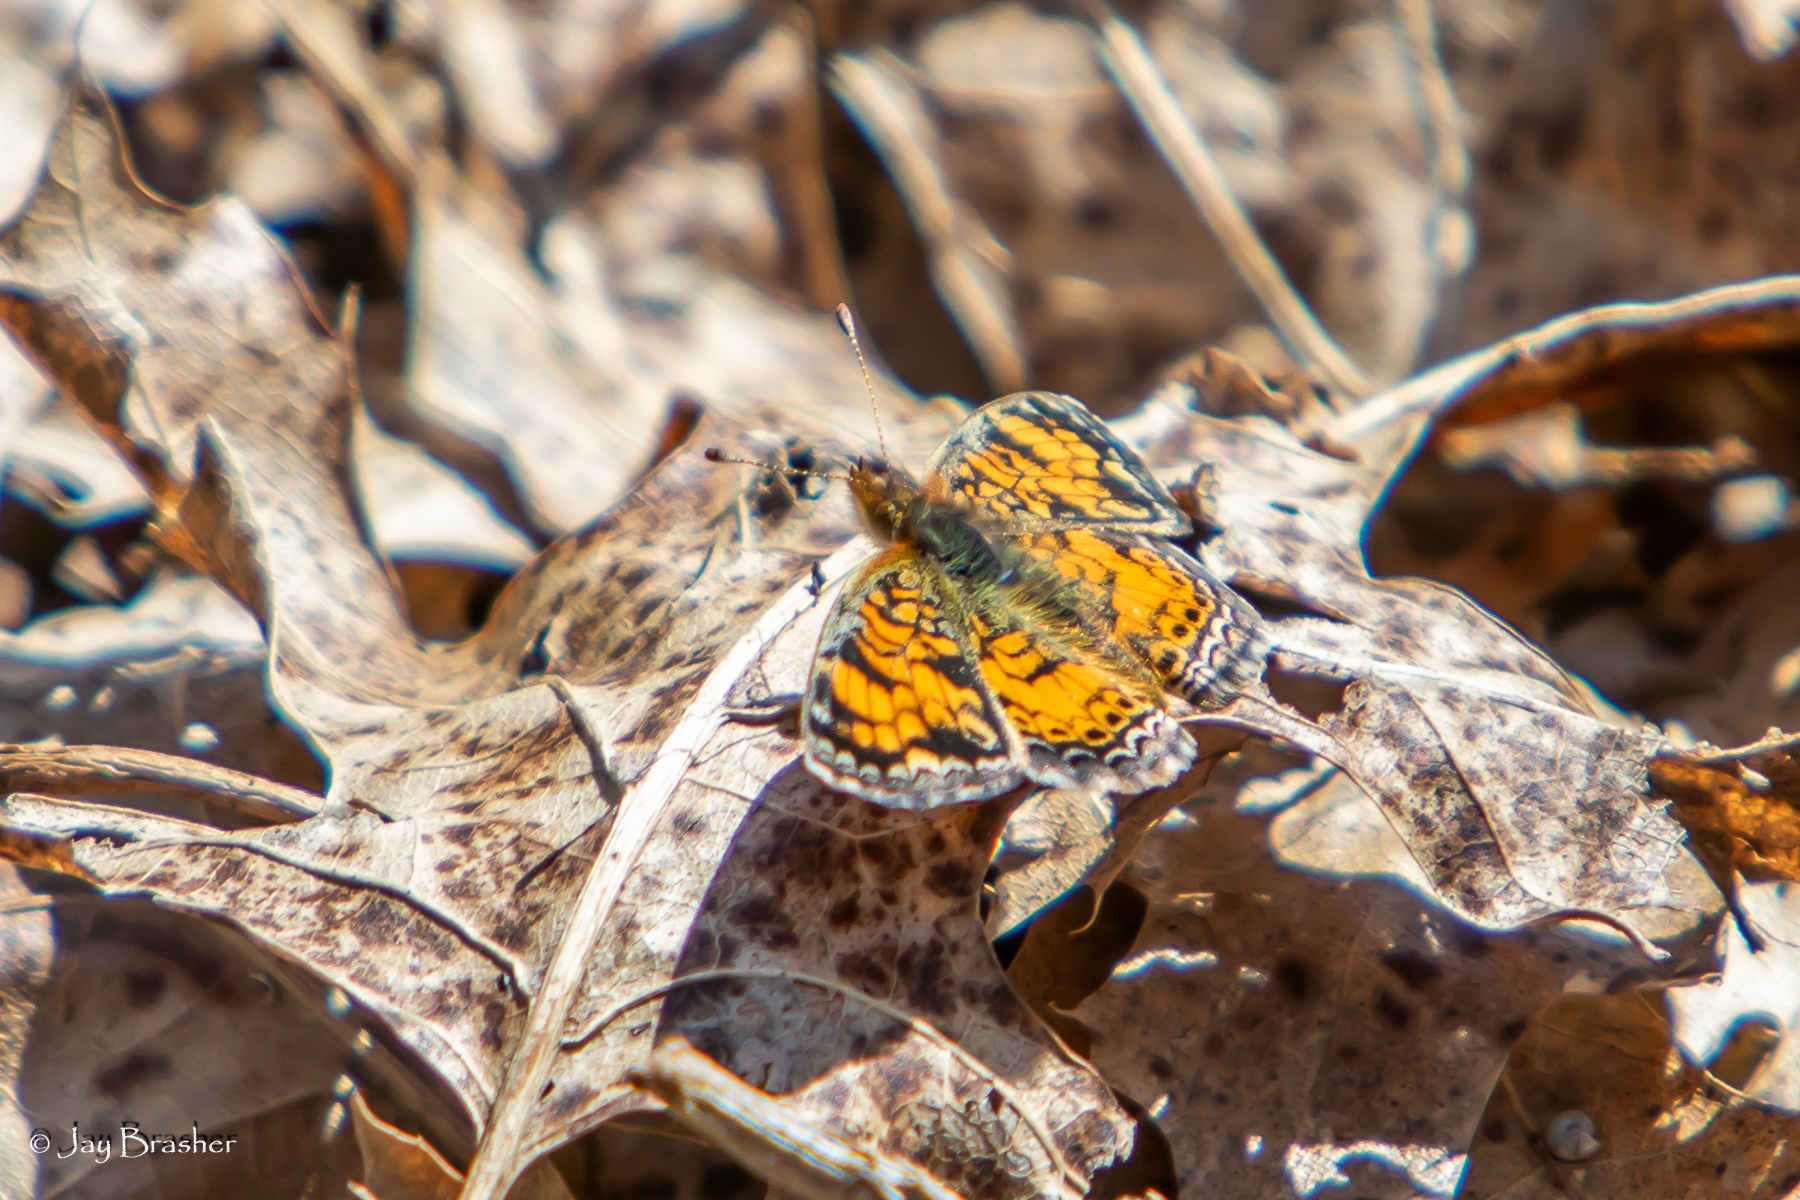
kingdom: Animalia
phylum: Arthropoda
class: Insecta
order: Lepidoptera
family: Nymphalidae
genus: Phyciodes
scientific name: Phyciodes tharos
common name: Pearl crescent
